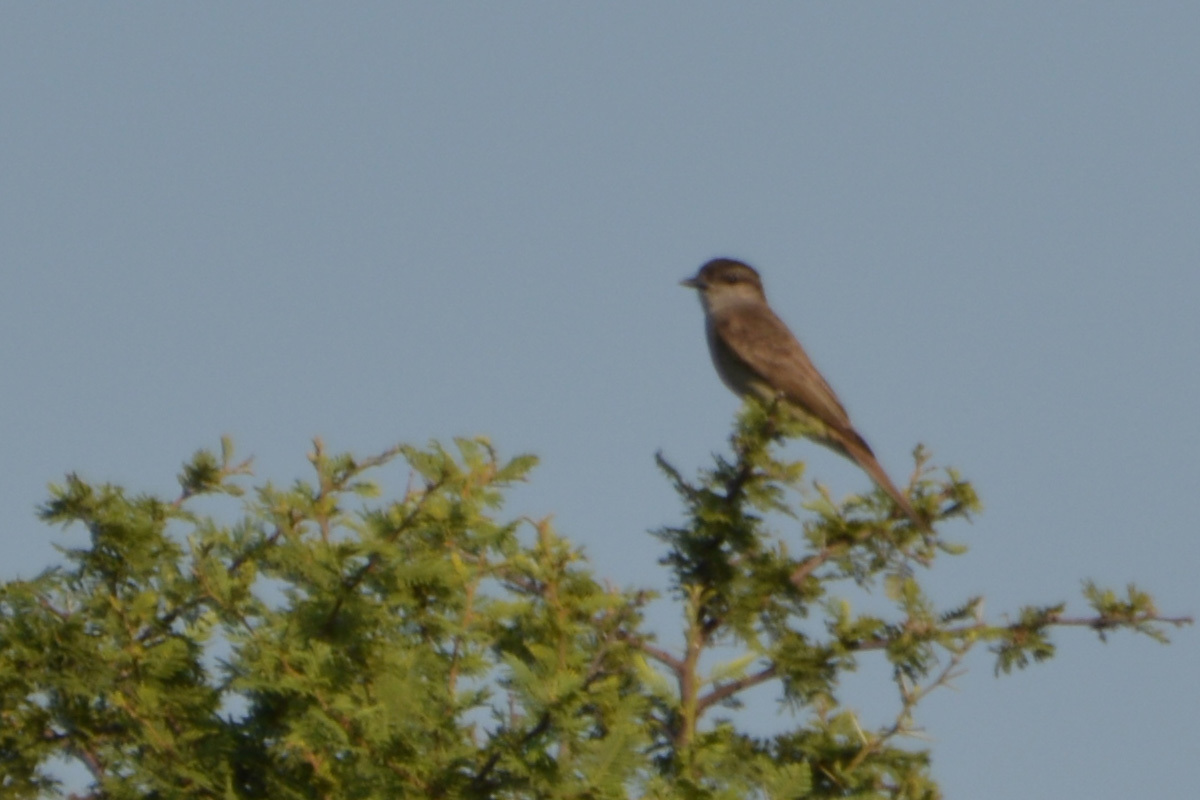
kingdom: Animalia
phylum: Chordata
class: Aves
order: Passeriformes
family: Tyrannidae
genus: Empidonomus
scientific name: Empidonomus aurantioatrocristatus
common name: Crowned slaty flycatcher
